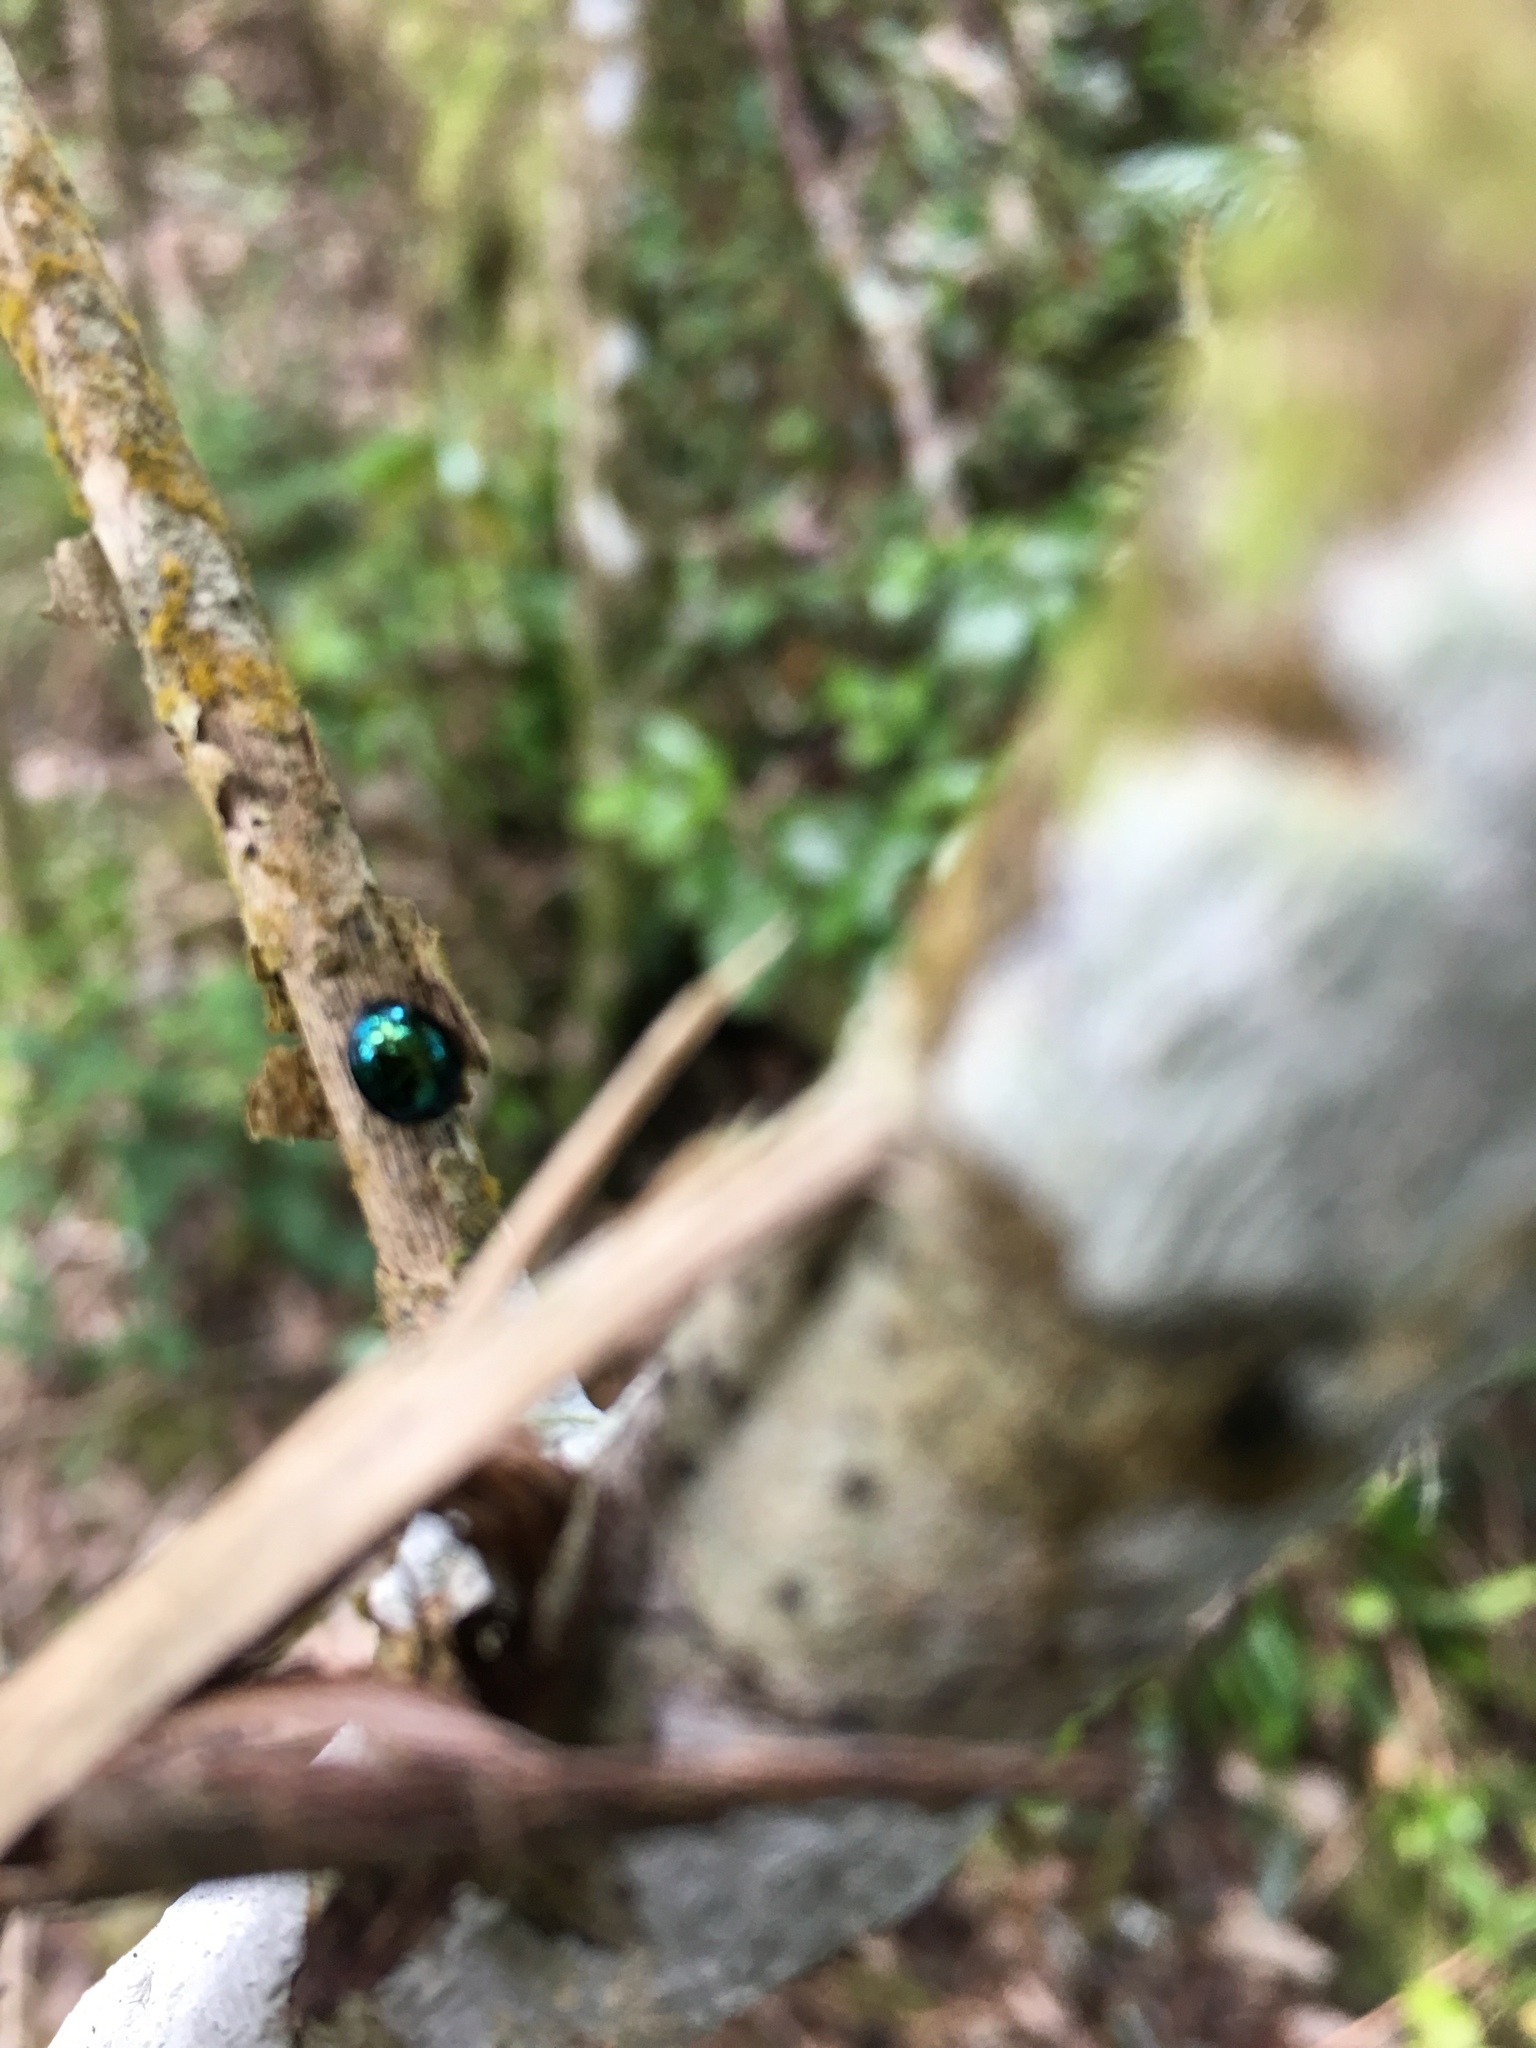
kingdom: Animalia
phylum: Arthropoda
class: Insecta
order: Coleoptera
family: Coccinellidae
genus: Halmus
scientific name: Halmus chalybeus
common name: Steel blue ladybird beetle
